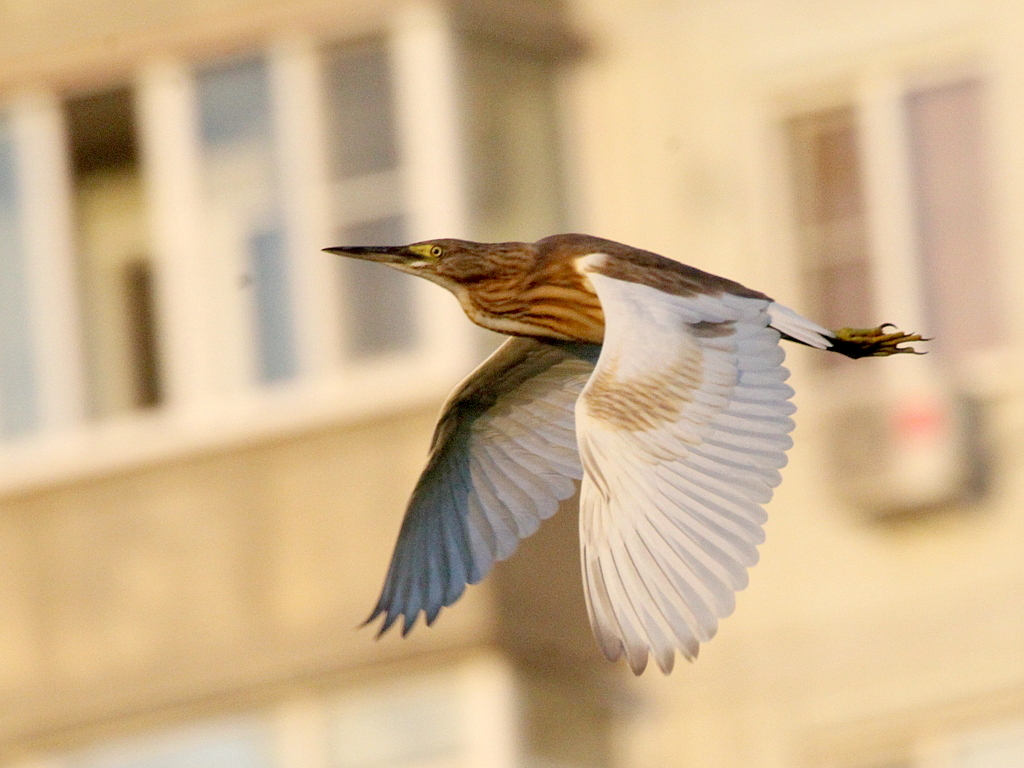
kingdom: Animalia
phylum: Chordata
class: Aves
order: Pelecaniformes
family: Ardeidae
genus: Ardeola
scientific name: Ardeola ralloides
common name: Squacco heron
